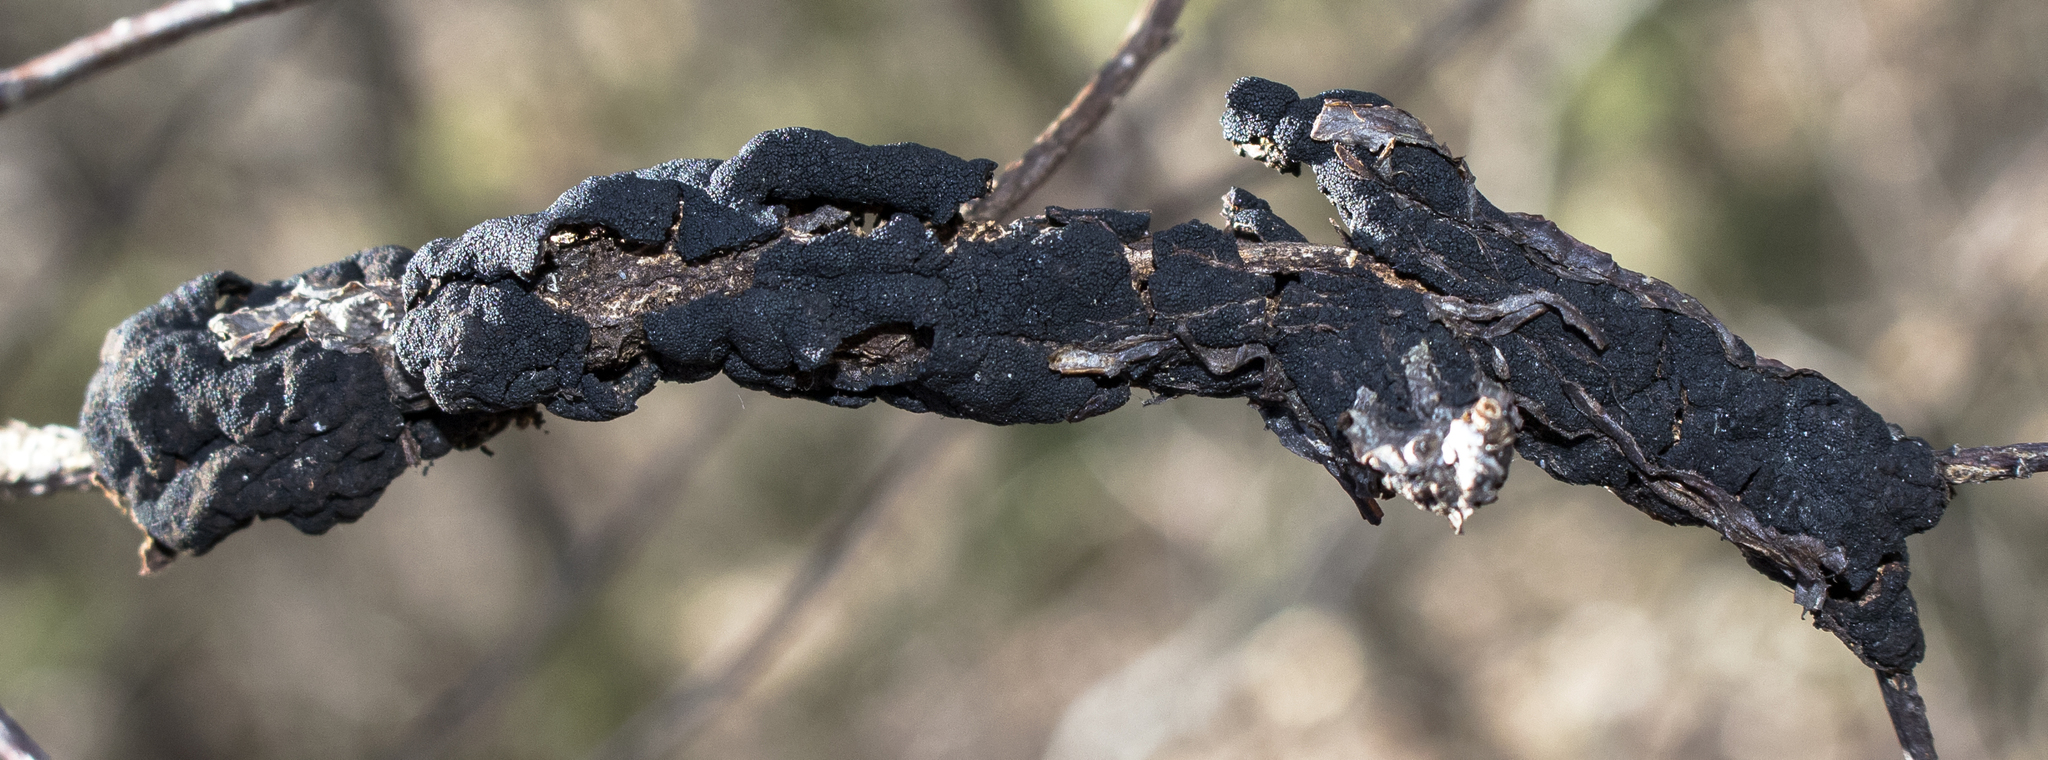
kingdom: Fungi
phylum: Ascomycota
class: Dothideomycetes
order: Venturiales
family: Venturiaceae
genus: Apiosporina
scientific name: Apiosporina morbosa
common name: Black knot
